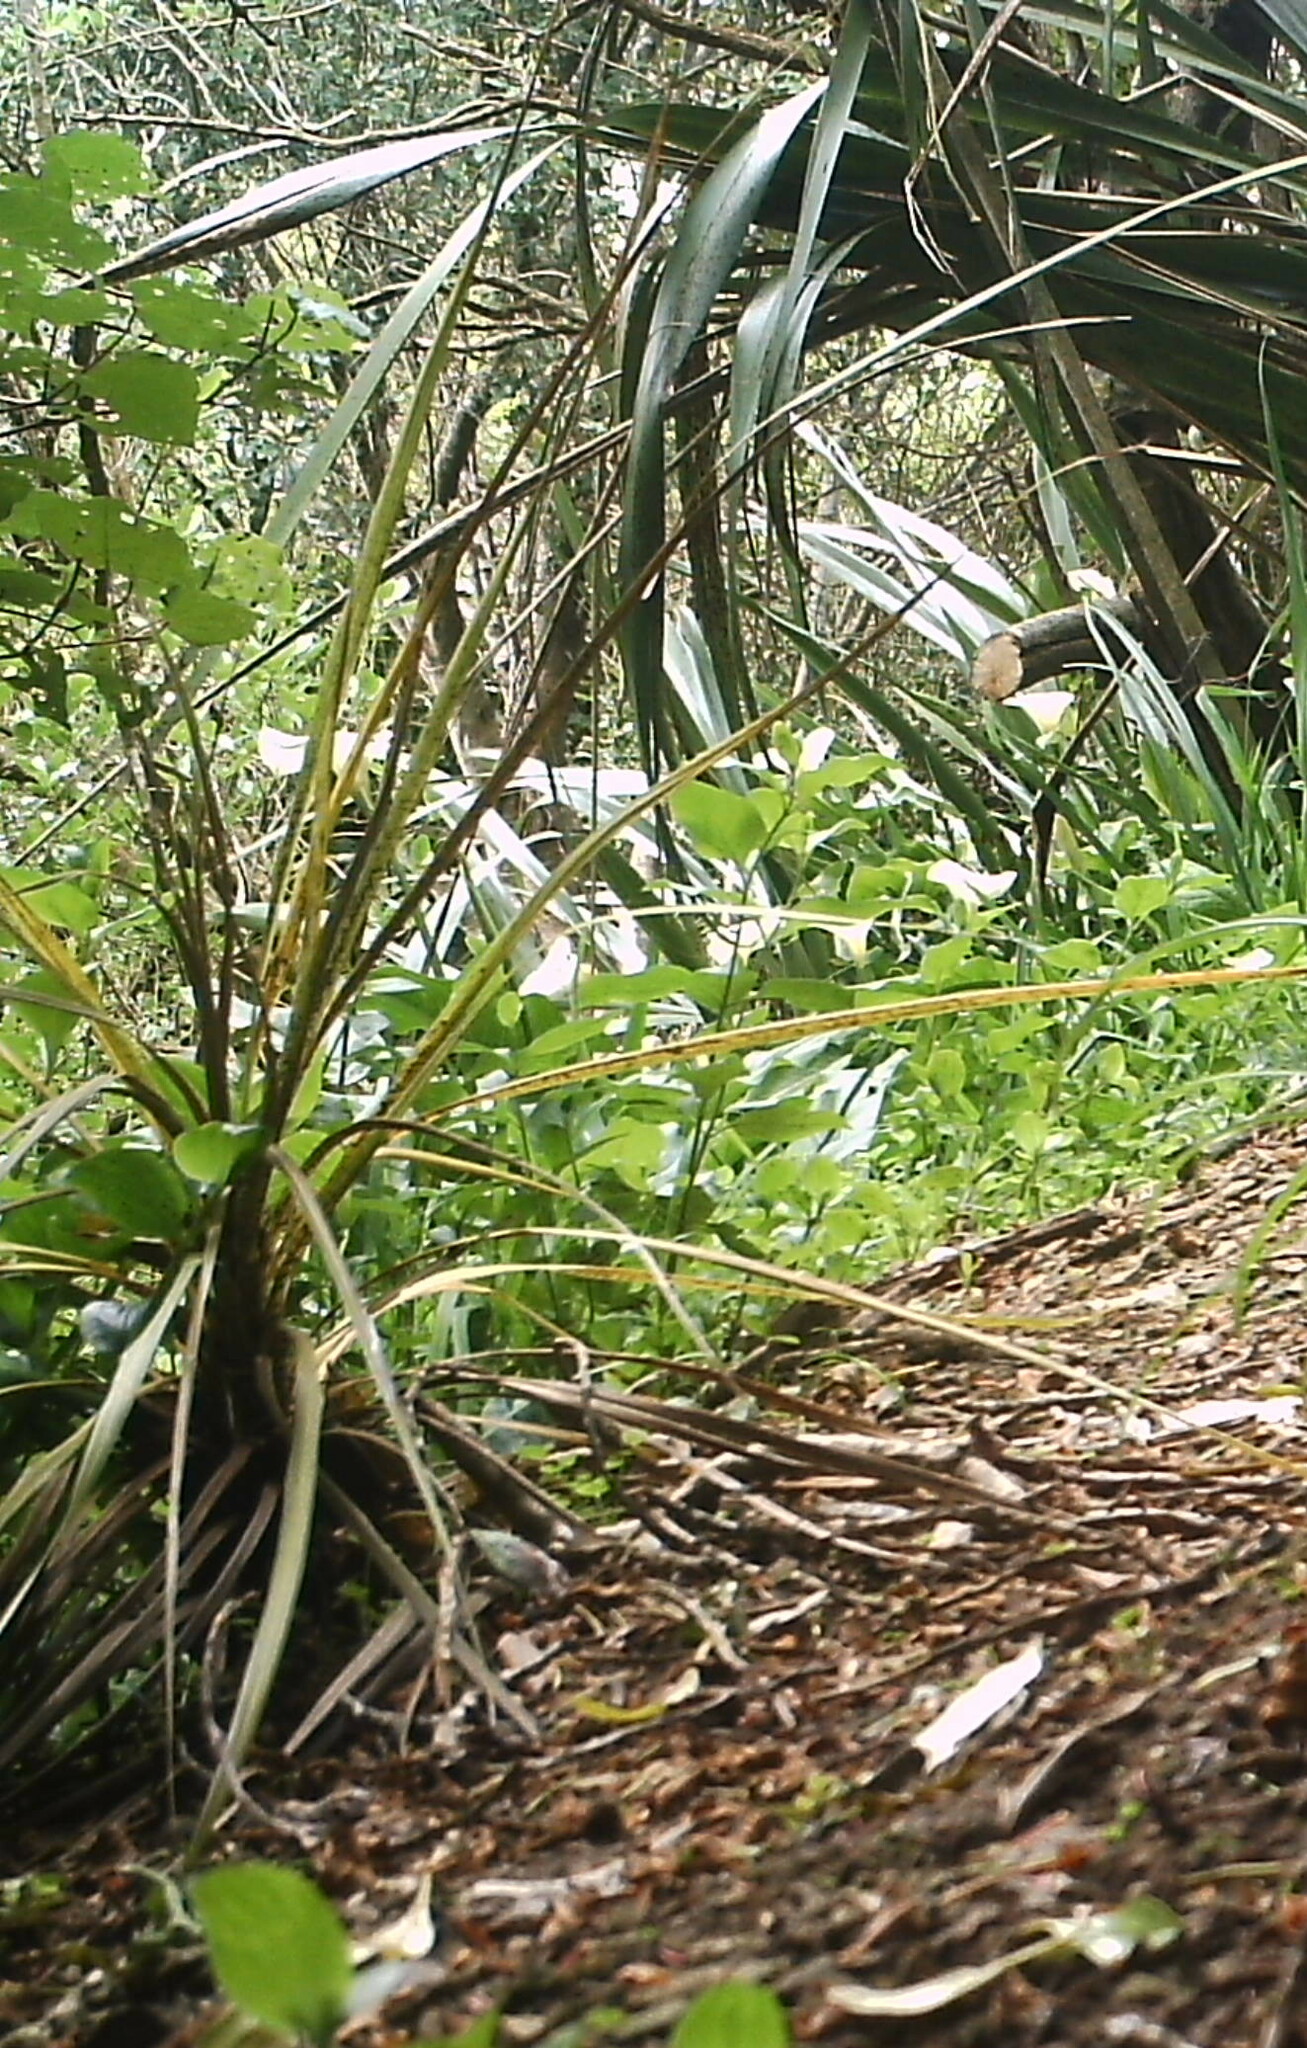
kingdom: Plantae
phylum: Tracheophyta
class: Liliopsida
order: Asparagales
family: Asparagaceae
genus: Cordyline
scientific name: Cordyline australis
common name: Cabbage-palm
